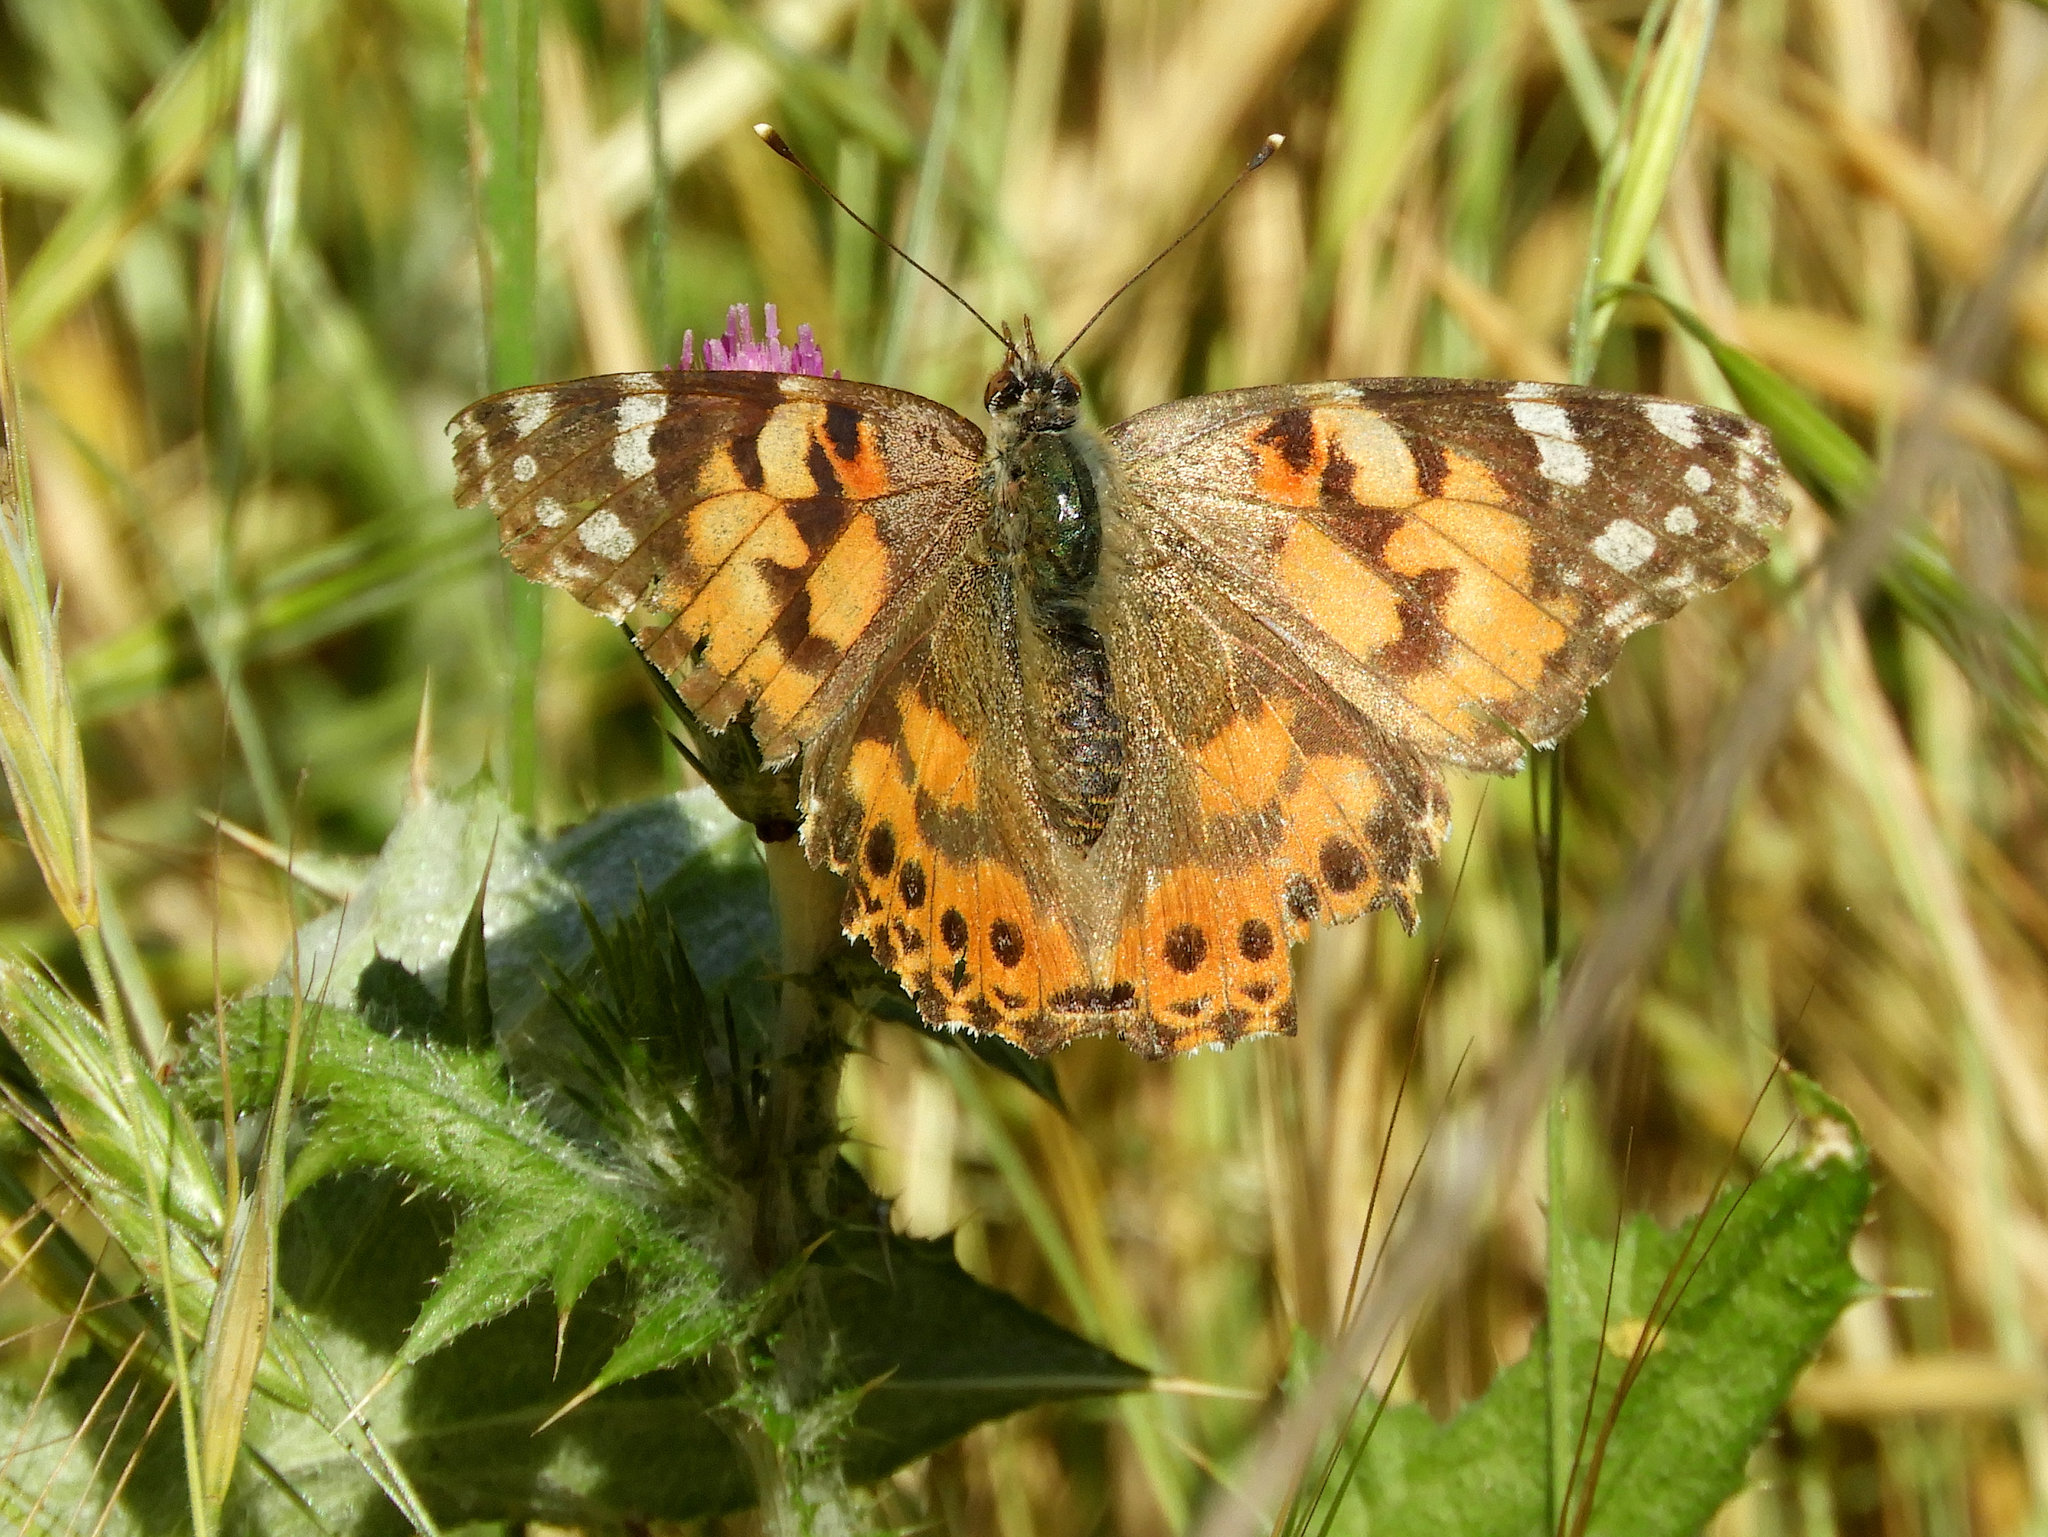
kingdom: Animalia
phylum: Arthropoda
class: Insecta
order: Lepidoptera
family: Nymphalidae
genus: Vanessa
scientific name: Vanessa cardui
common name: Painted lady
